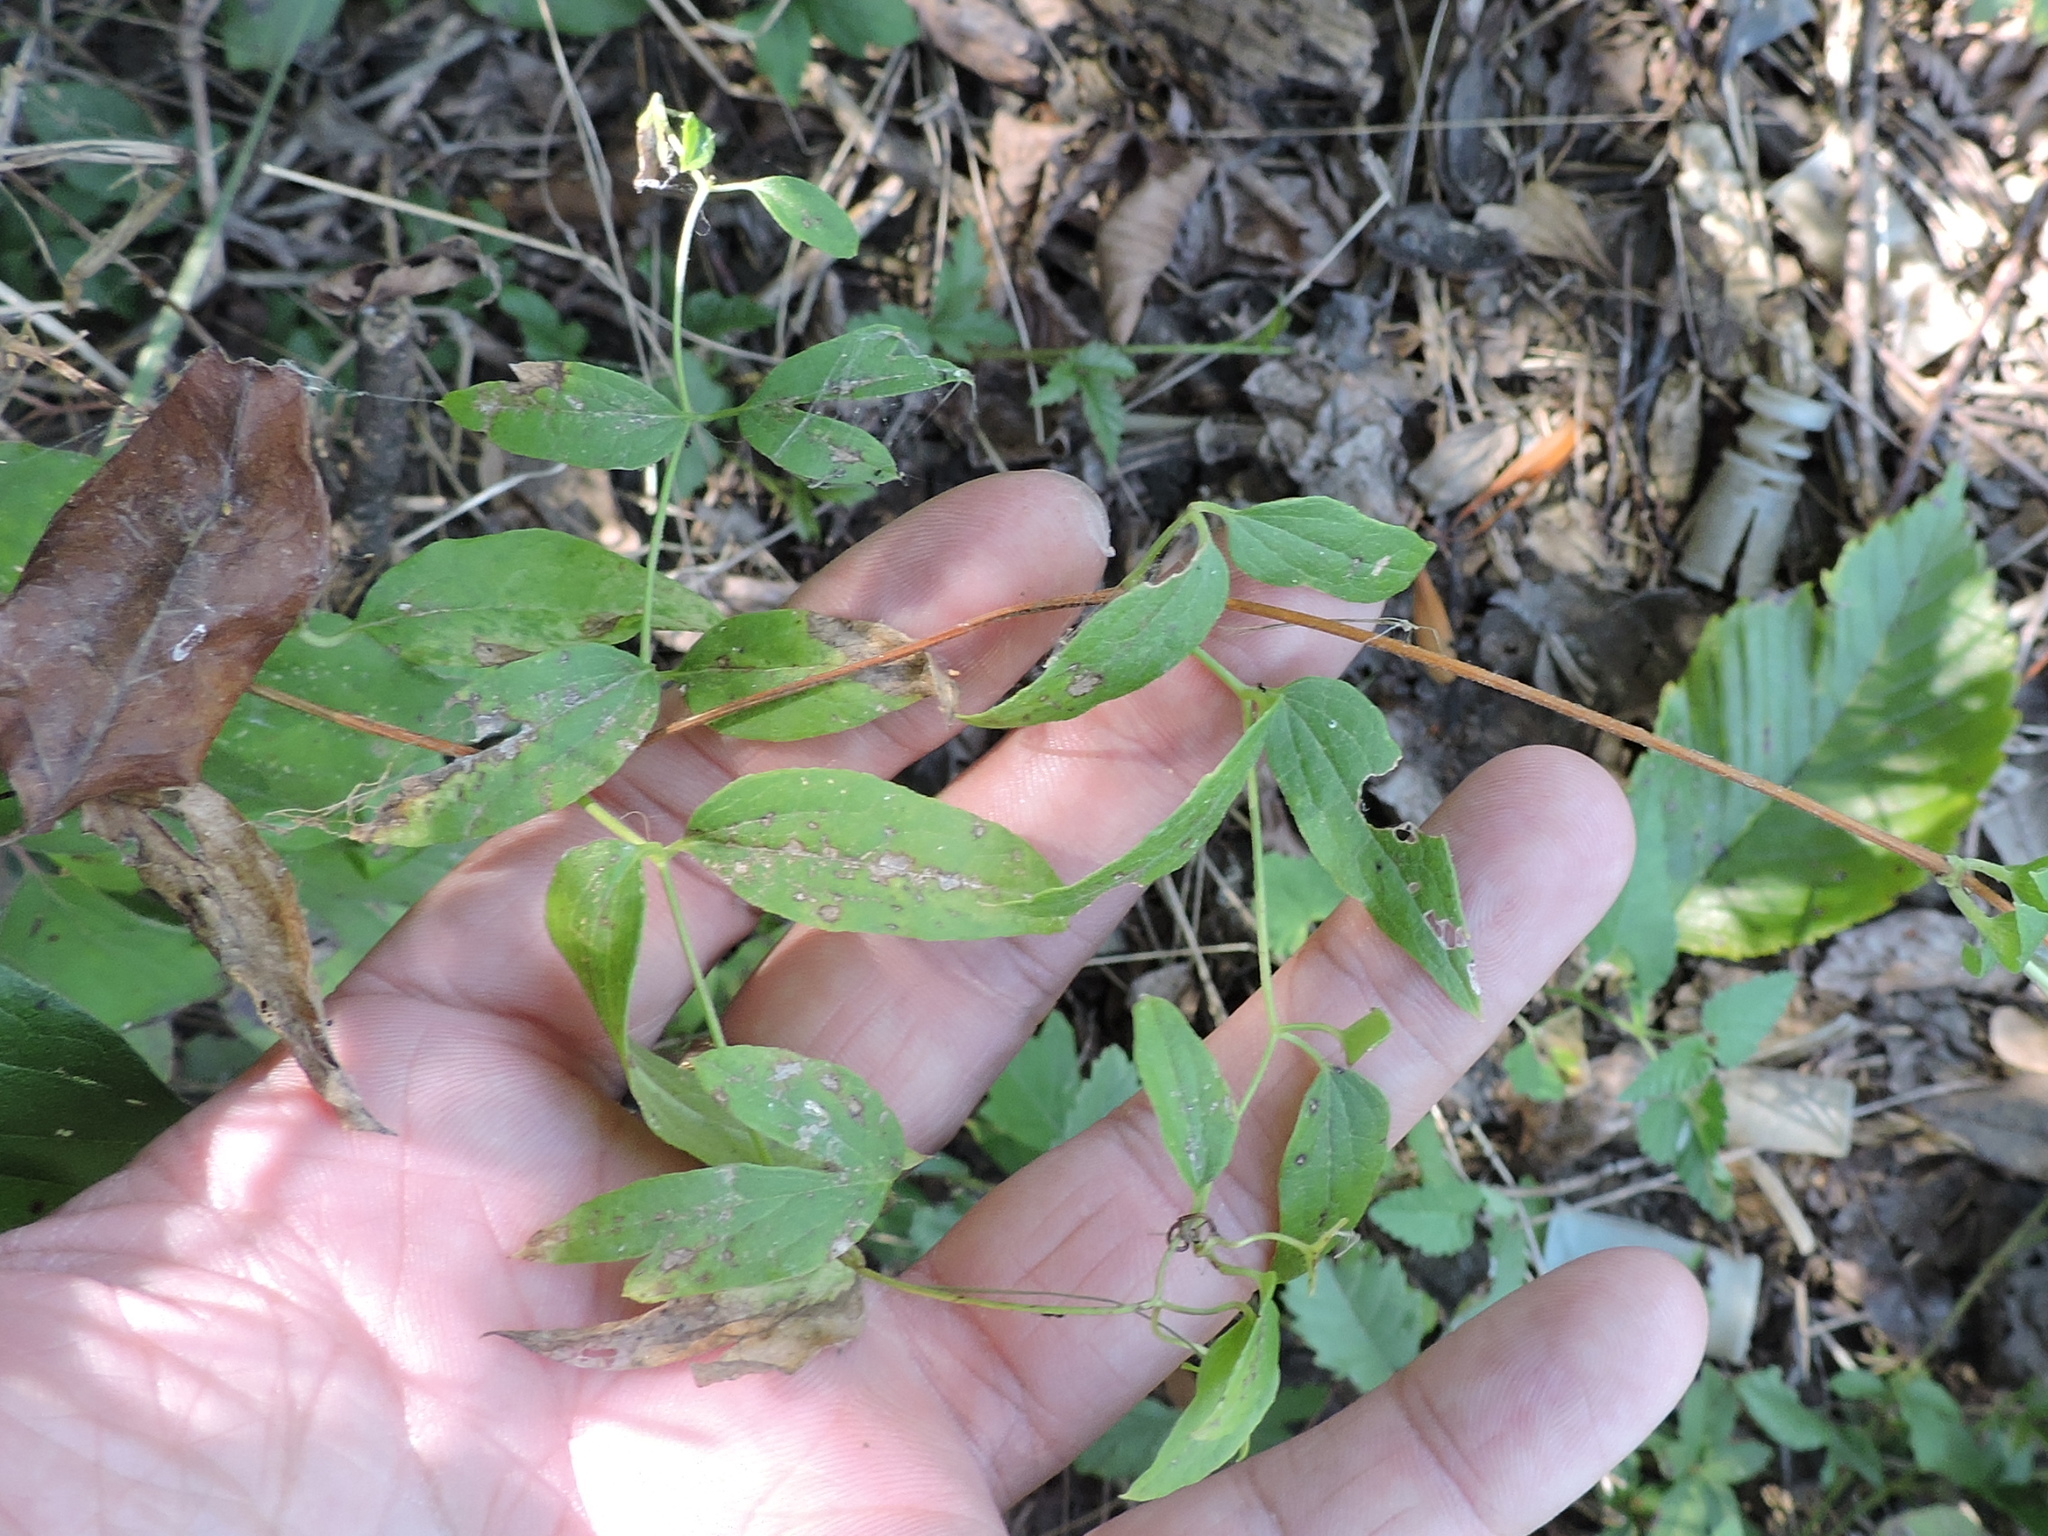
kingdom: Plantae
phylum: Tracheophyta
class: Magnoliopsida
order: Ranunculales
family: Ranunculaceae
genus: Clematis
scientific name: Clematis pitcheri
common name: Bellflower clematis
